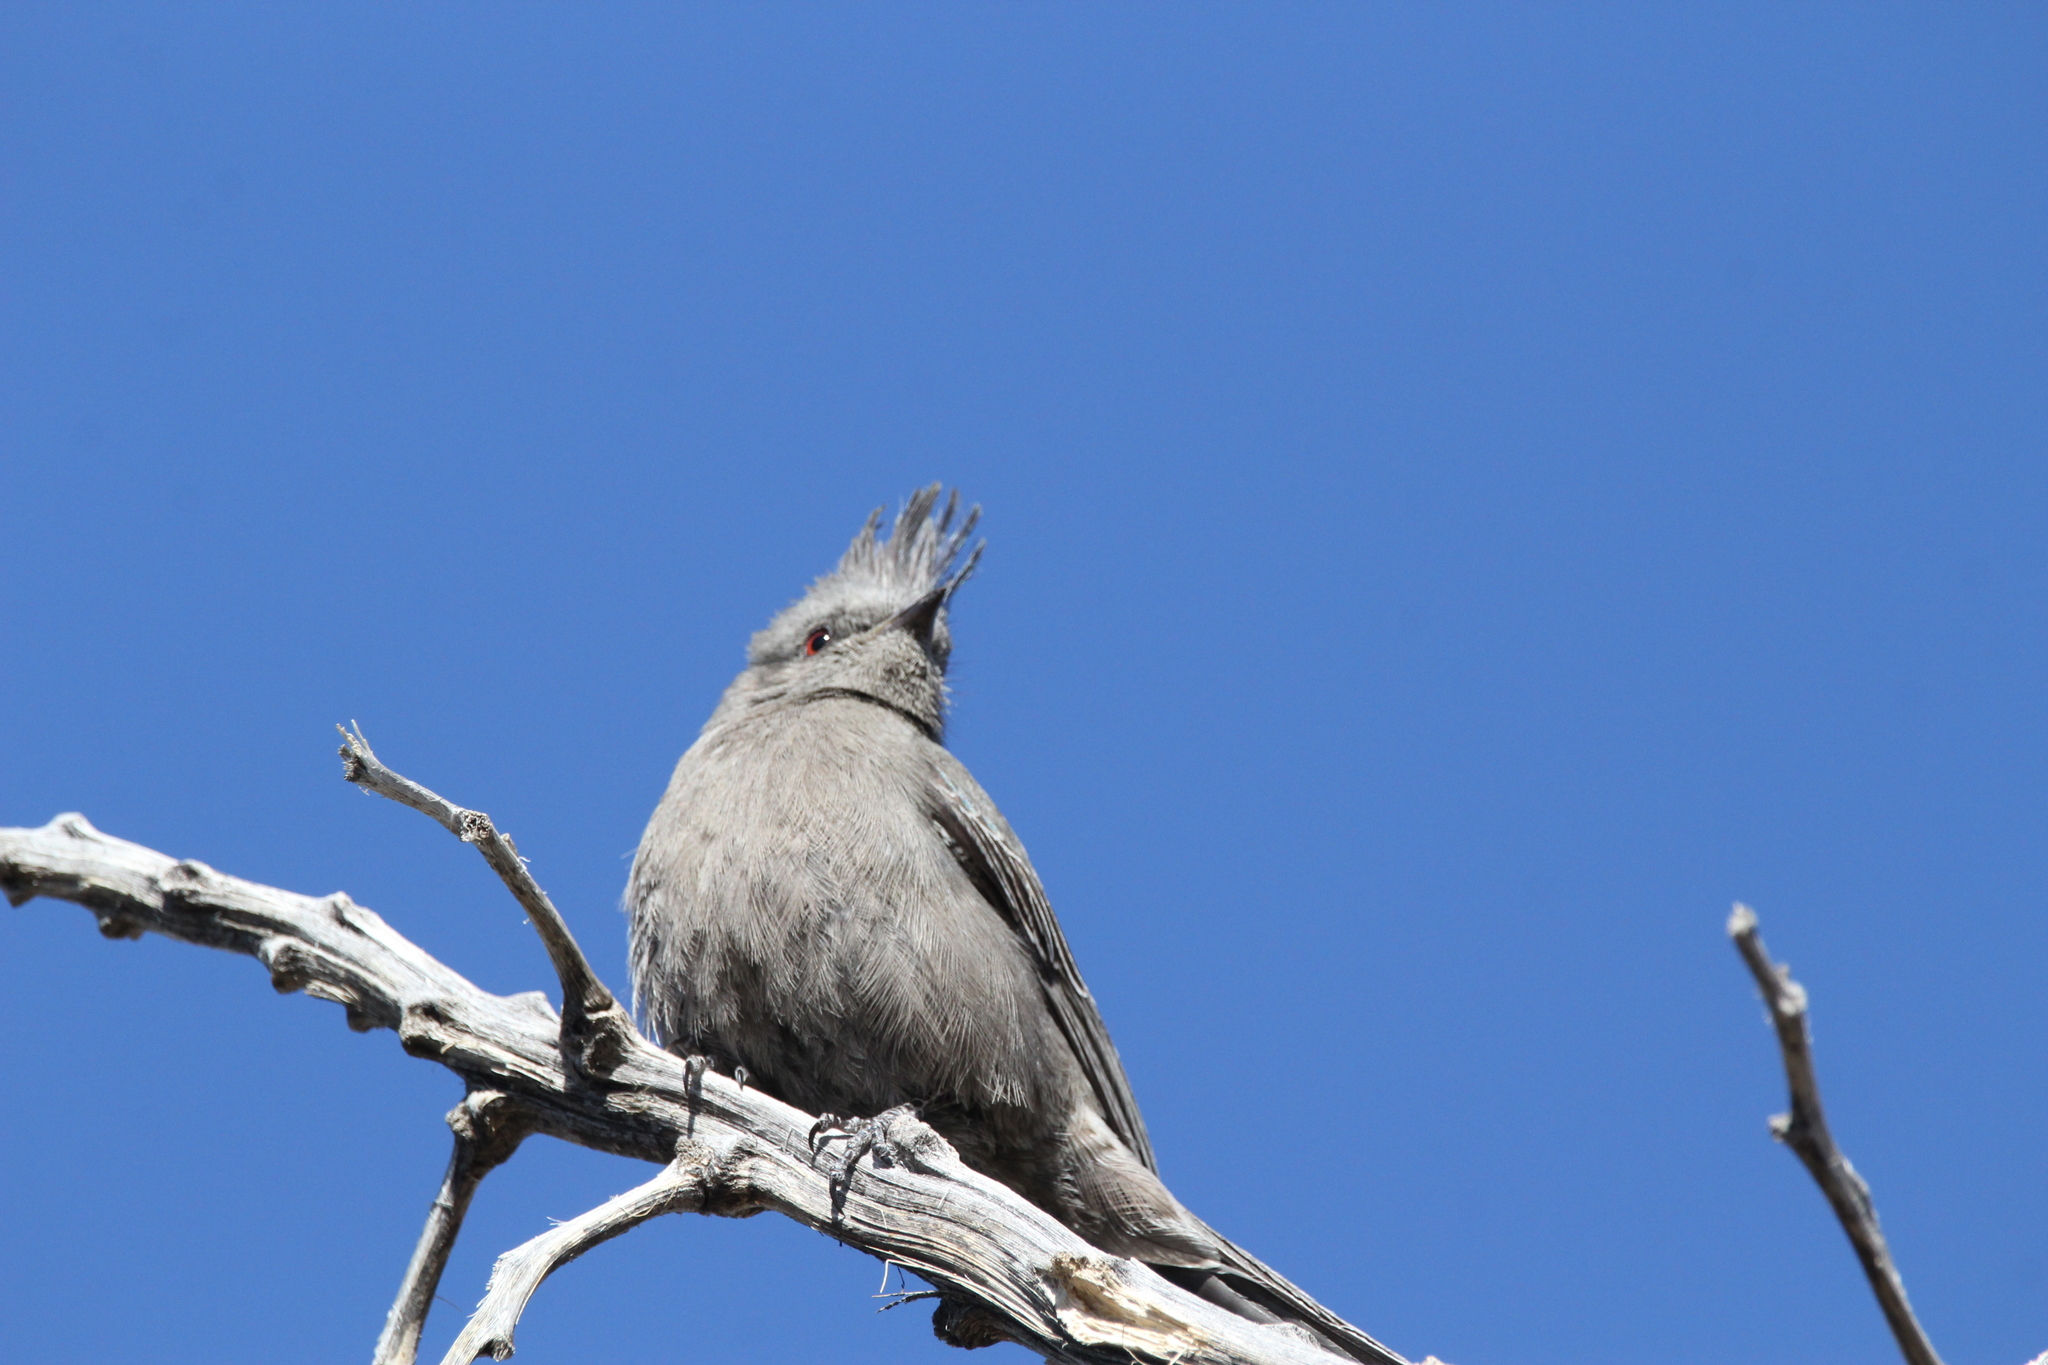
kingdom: Animalia
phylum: Chordata
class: Aves
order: Passeriformes
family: Ptilogonatidae
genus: Phainopepla
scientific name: Phainopepla nitens
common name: Phainopepla
